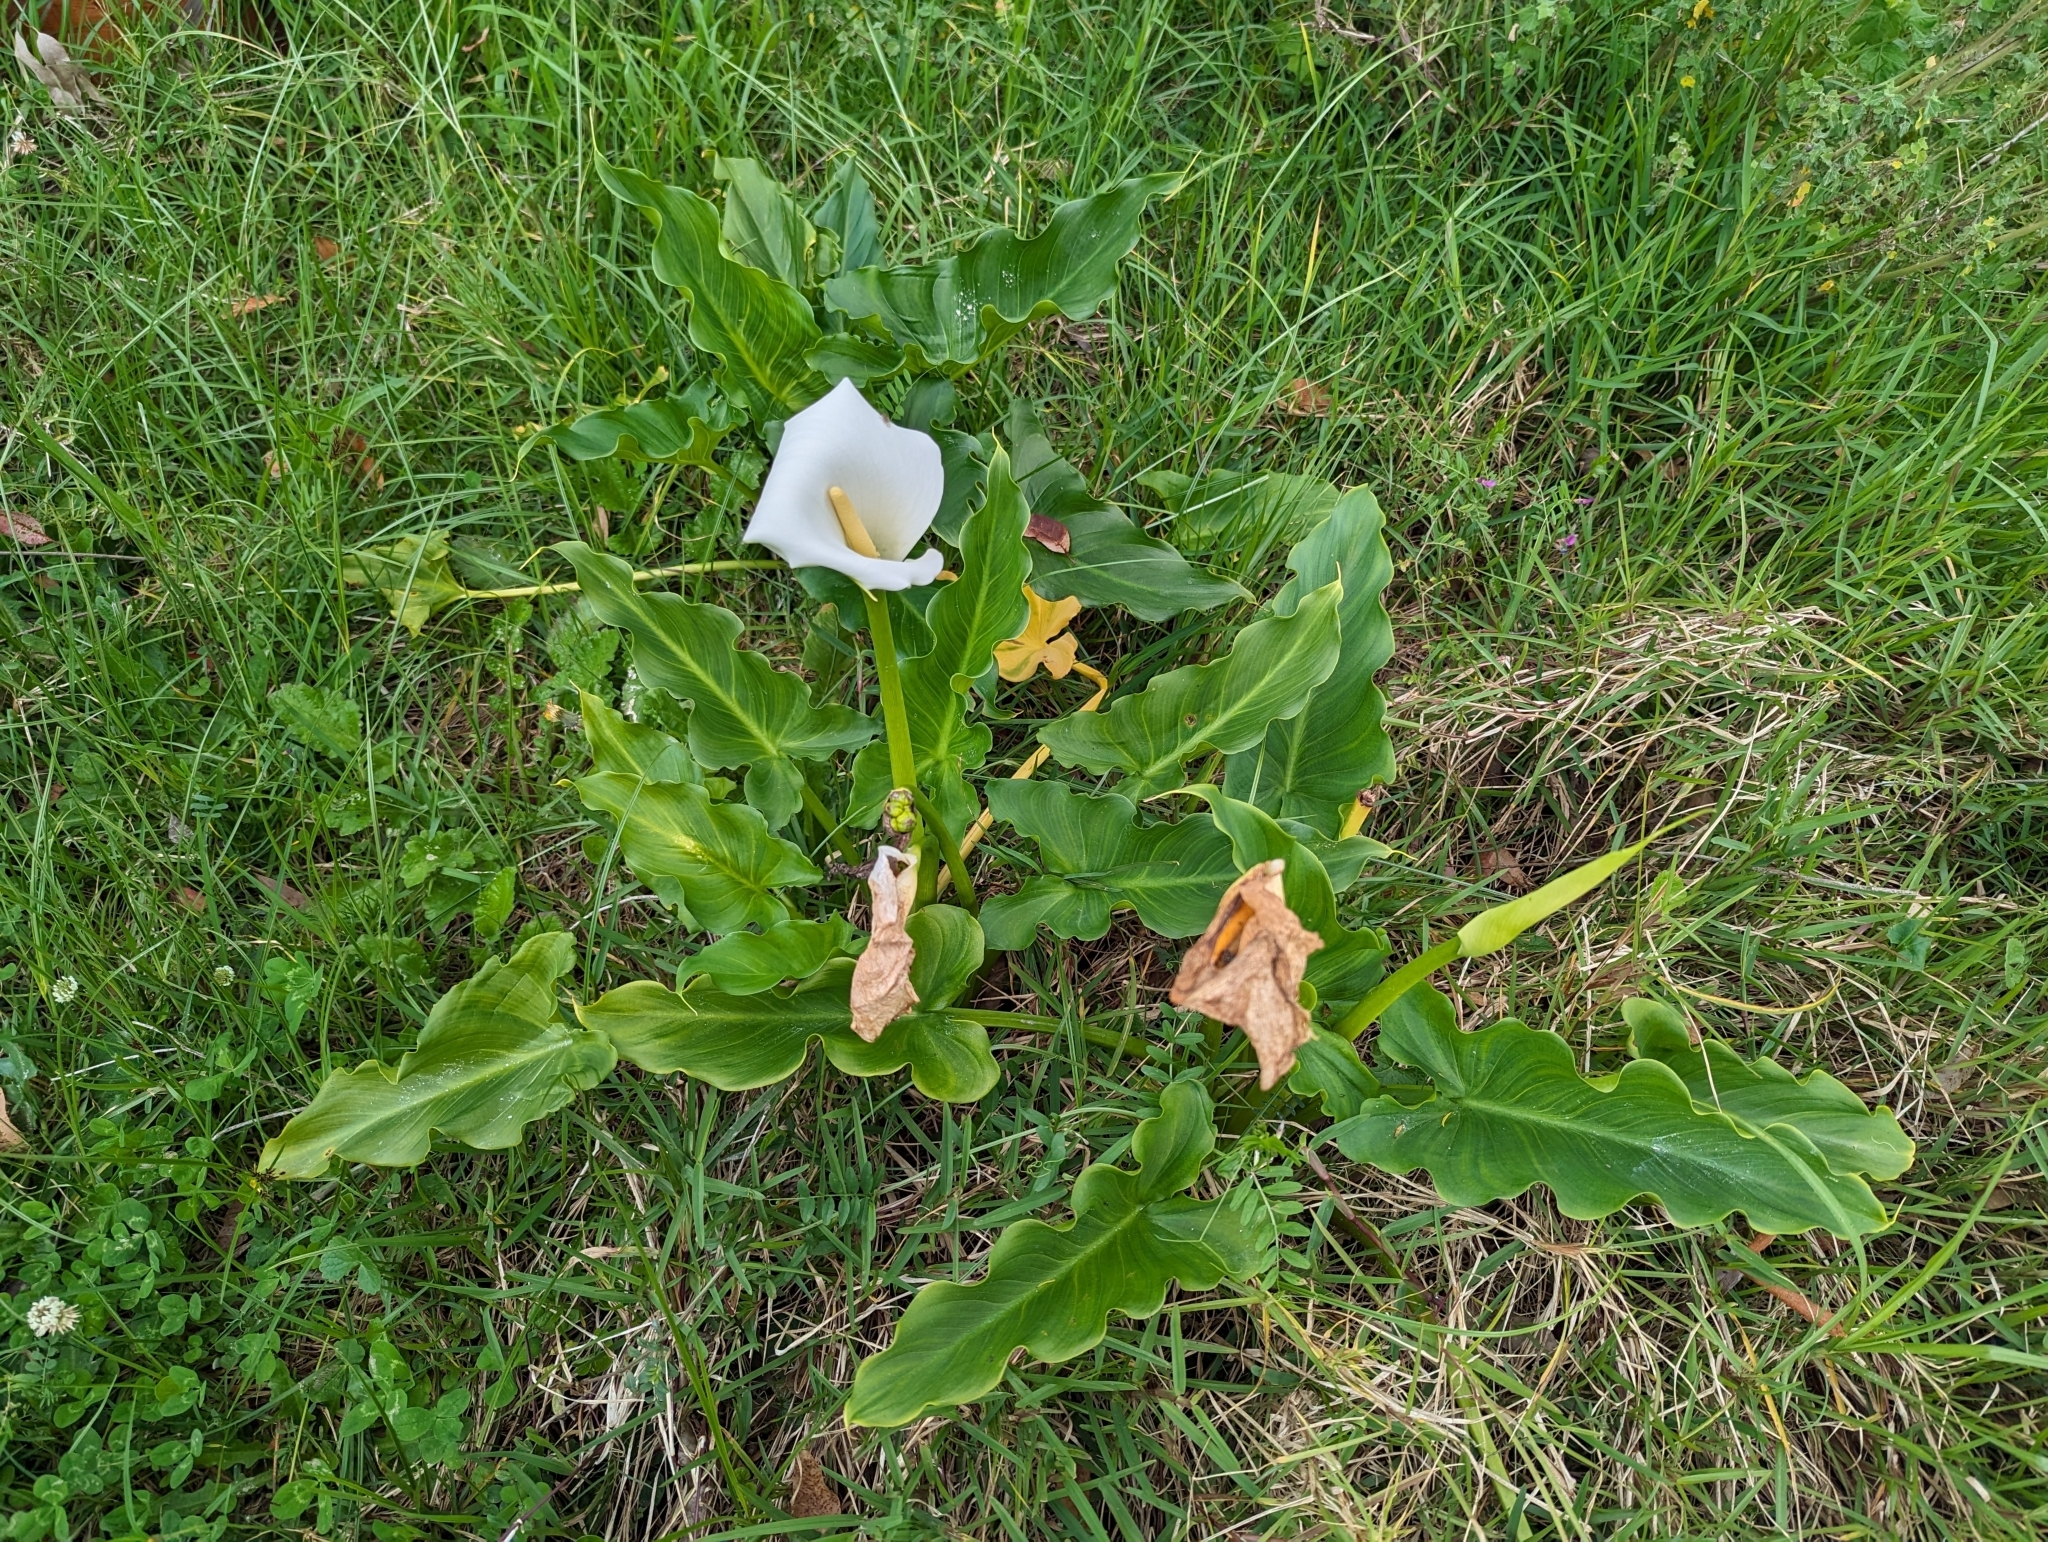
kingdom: Plantae
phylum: Tracheophyta
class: Liliopsida
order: Alismatales
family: Araceae
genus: Zantedeschia
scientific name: Zantedeschia aethiopica
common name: Altar-lily
